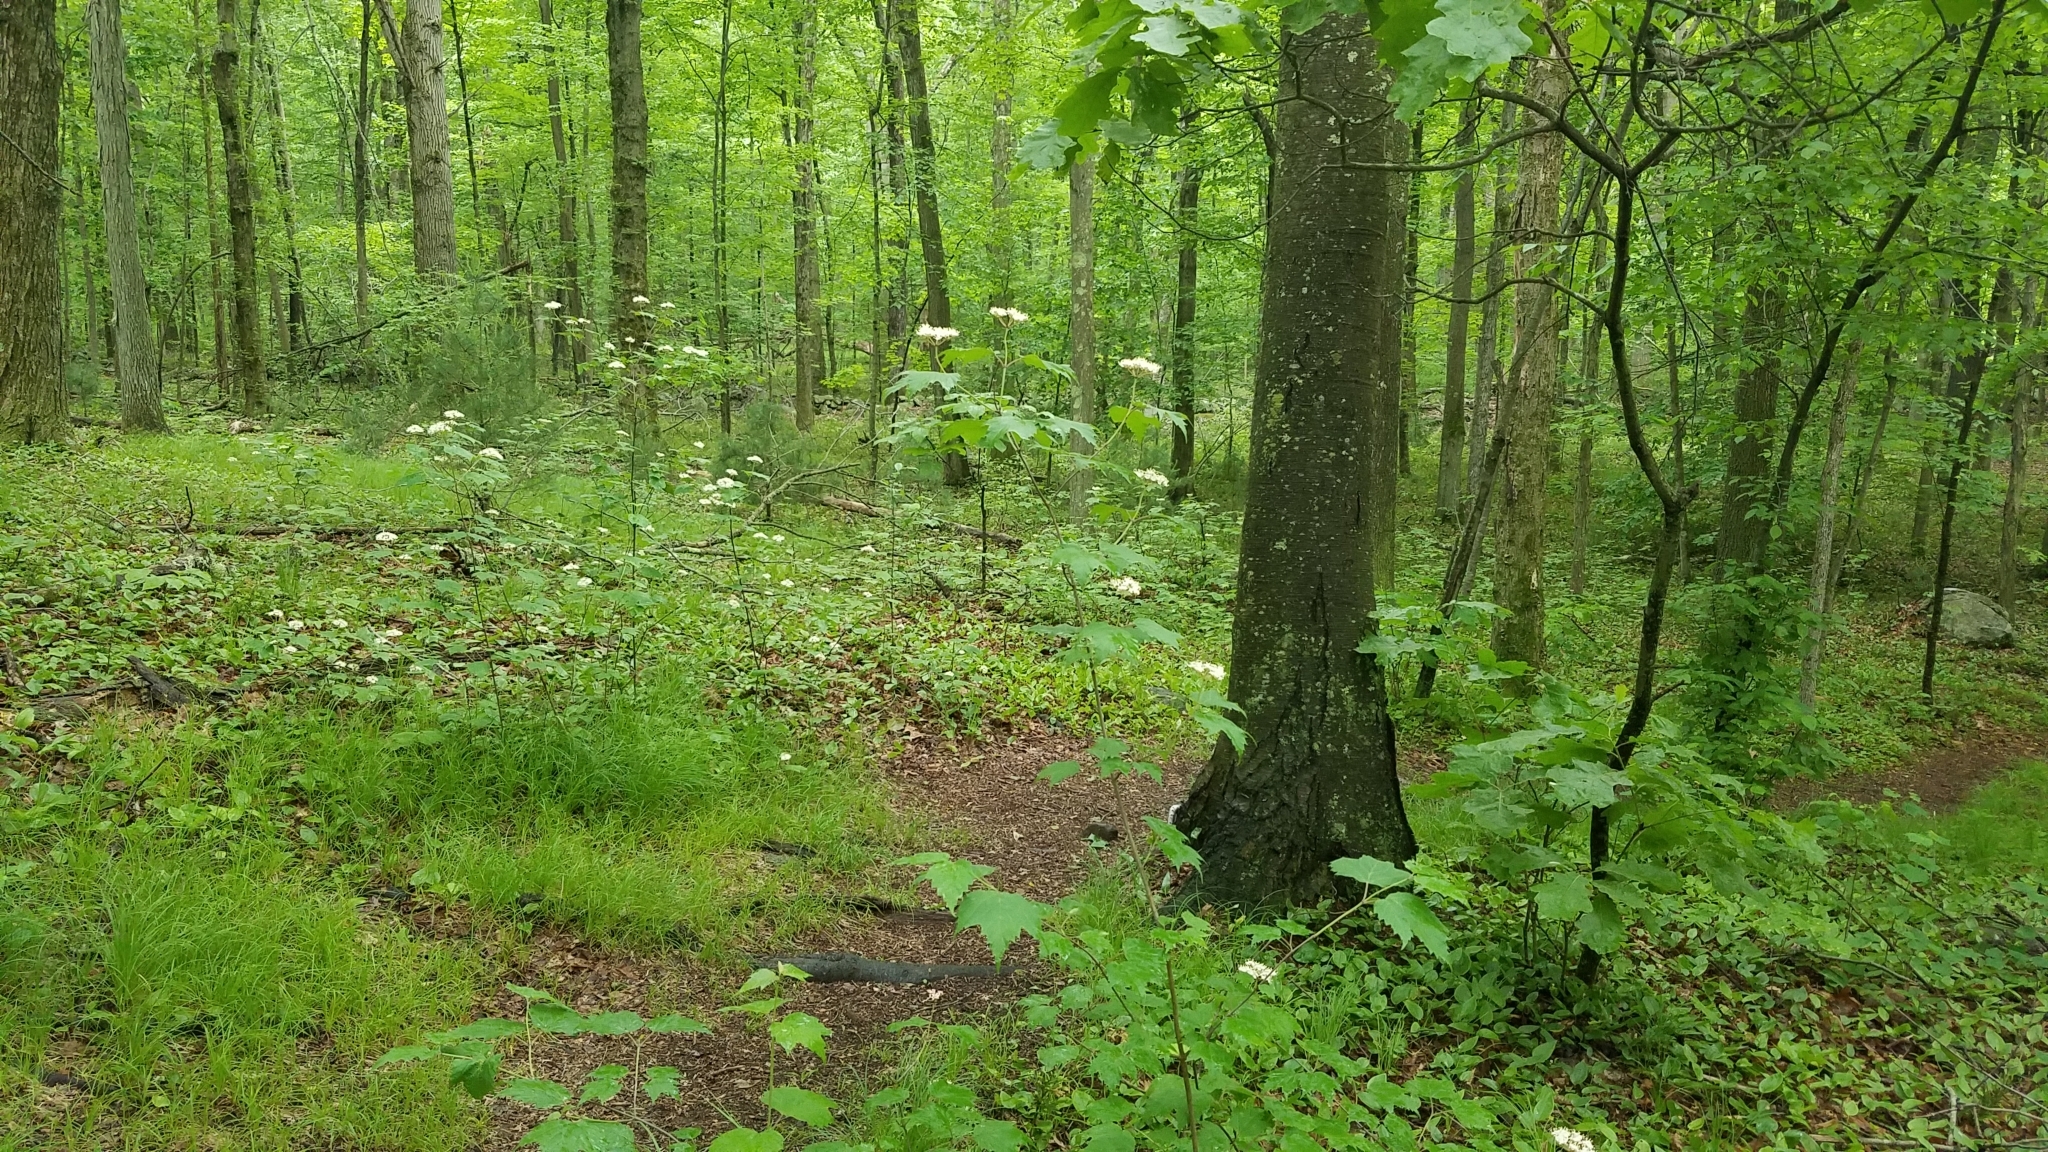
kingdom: Plantae
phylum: Tracheophyta
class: Magnoliopsida
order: Dipsacales
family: Viburnaceae
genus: Viburnum
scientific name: Viburnum acerifolium
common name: Dockmackie
